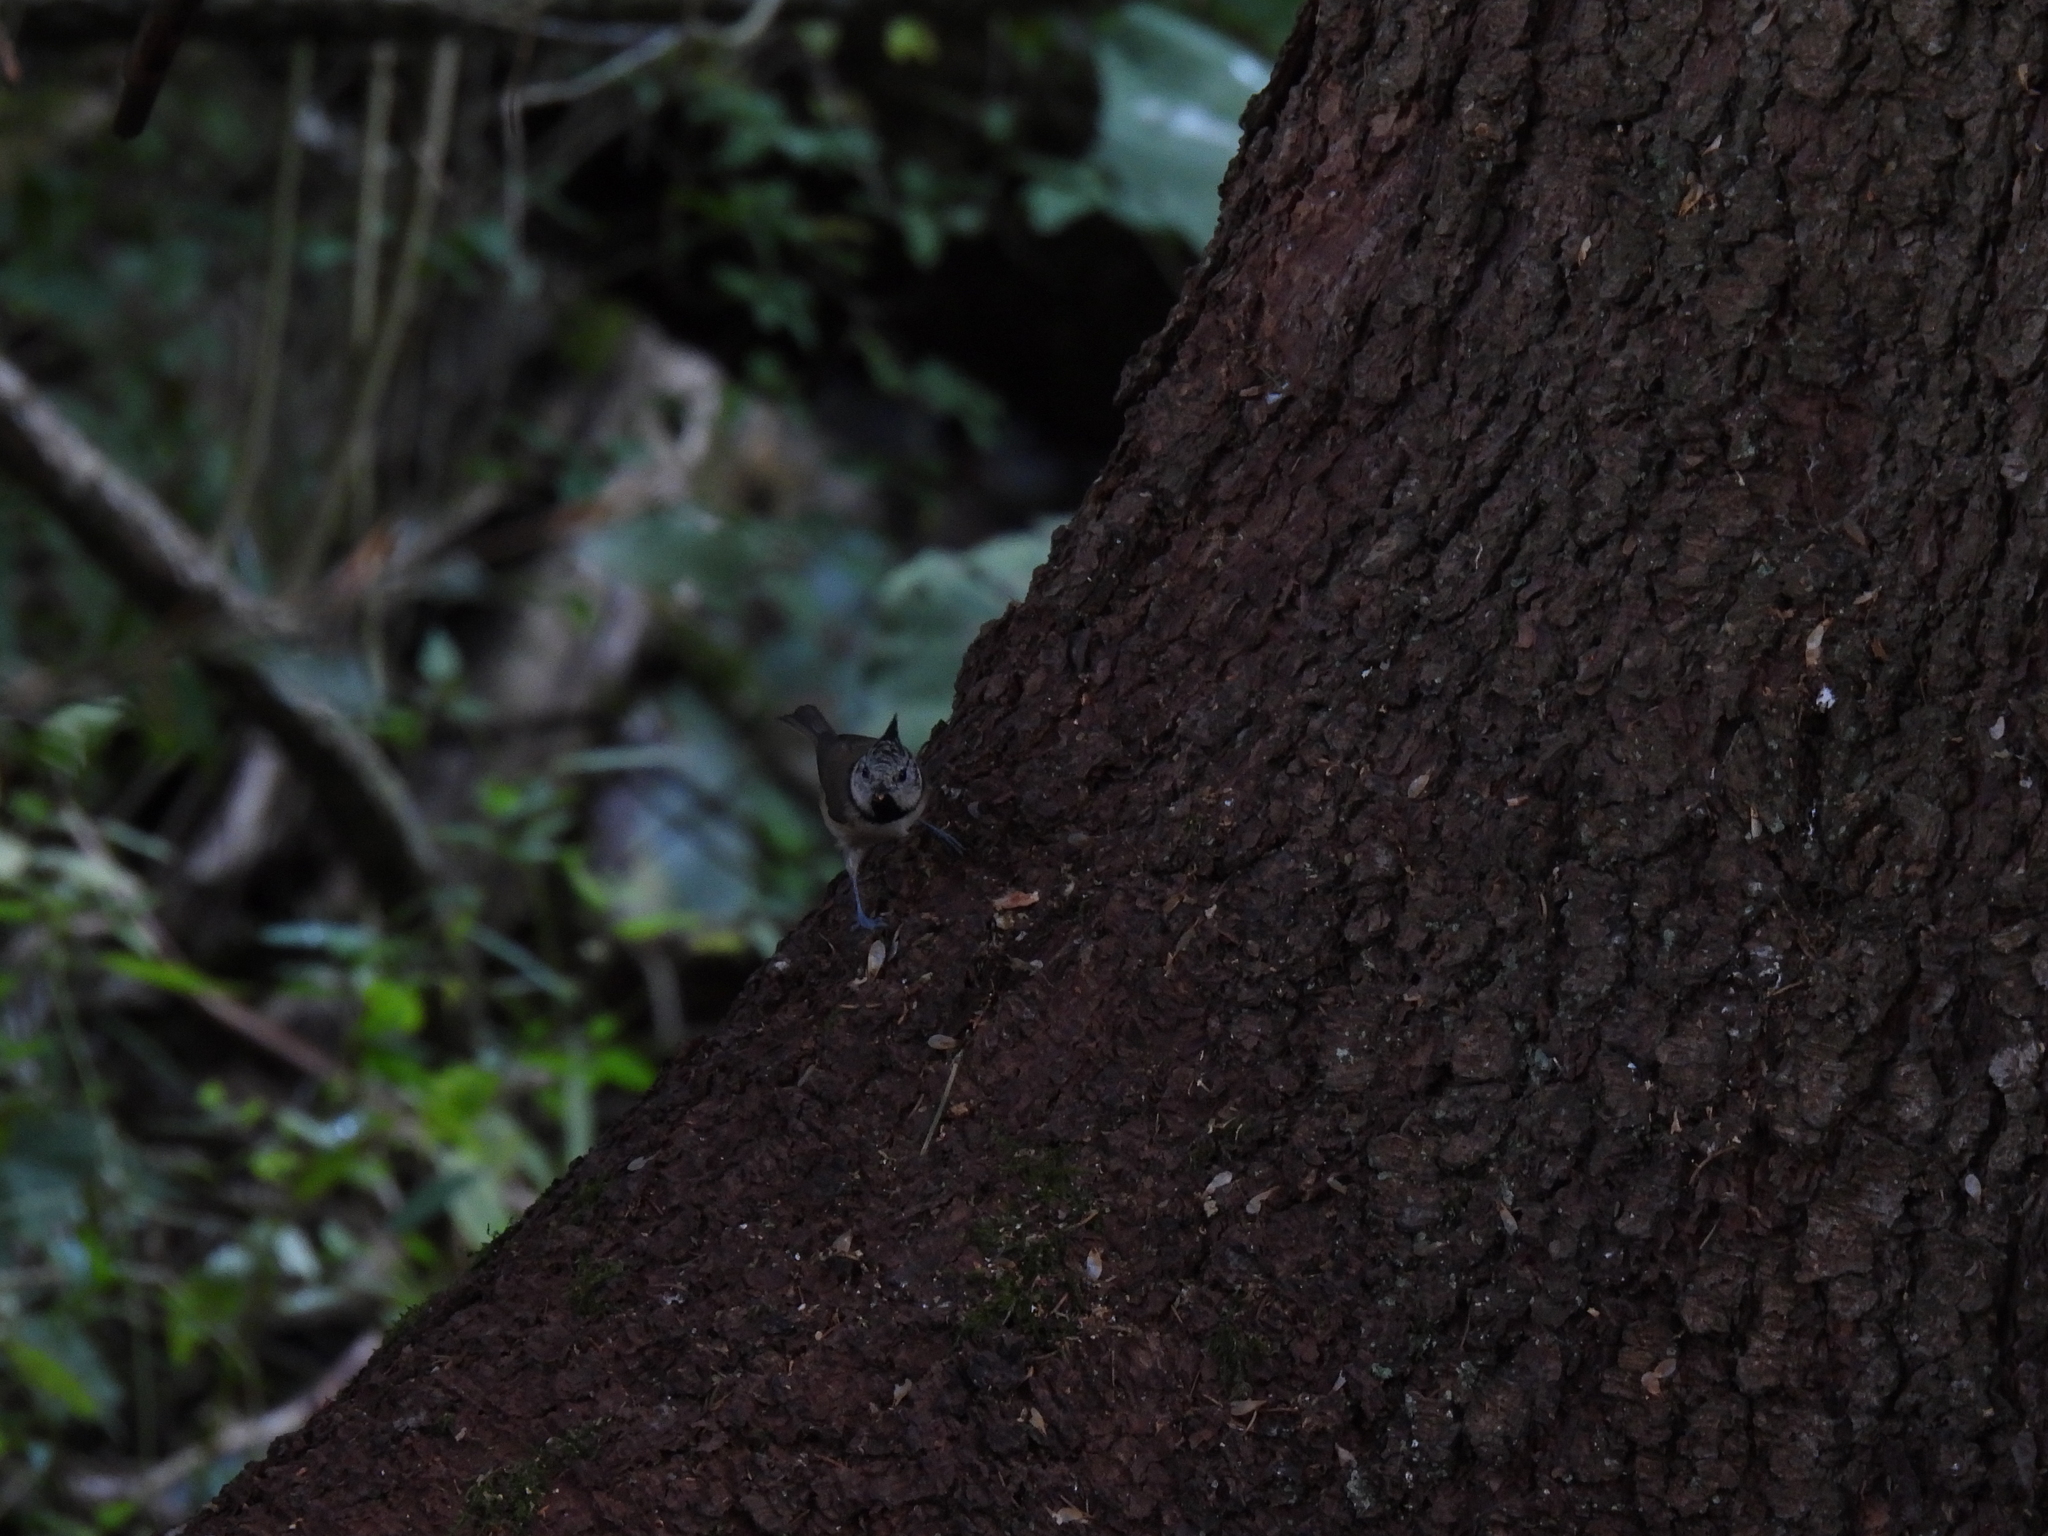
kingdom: Animalia
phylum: Chordata
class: Aves
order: Passeriformes
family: Paridae
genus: Lophophanes
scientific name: Lophophanes cristatus
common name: European crested tit
